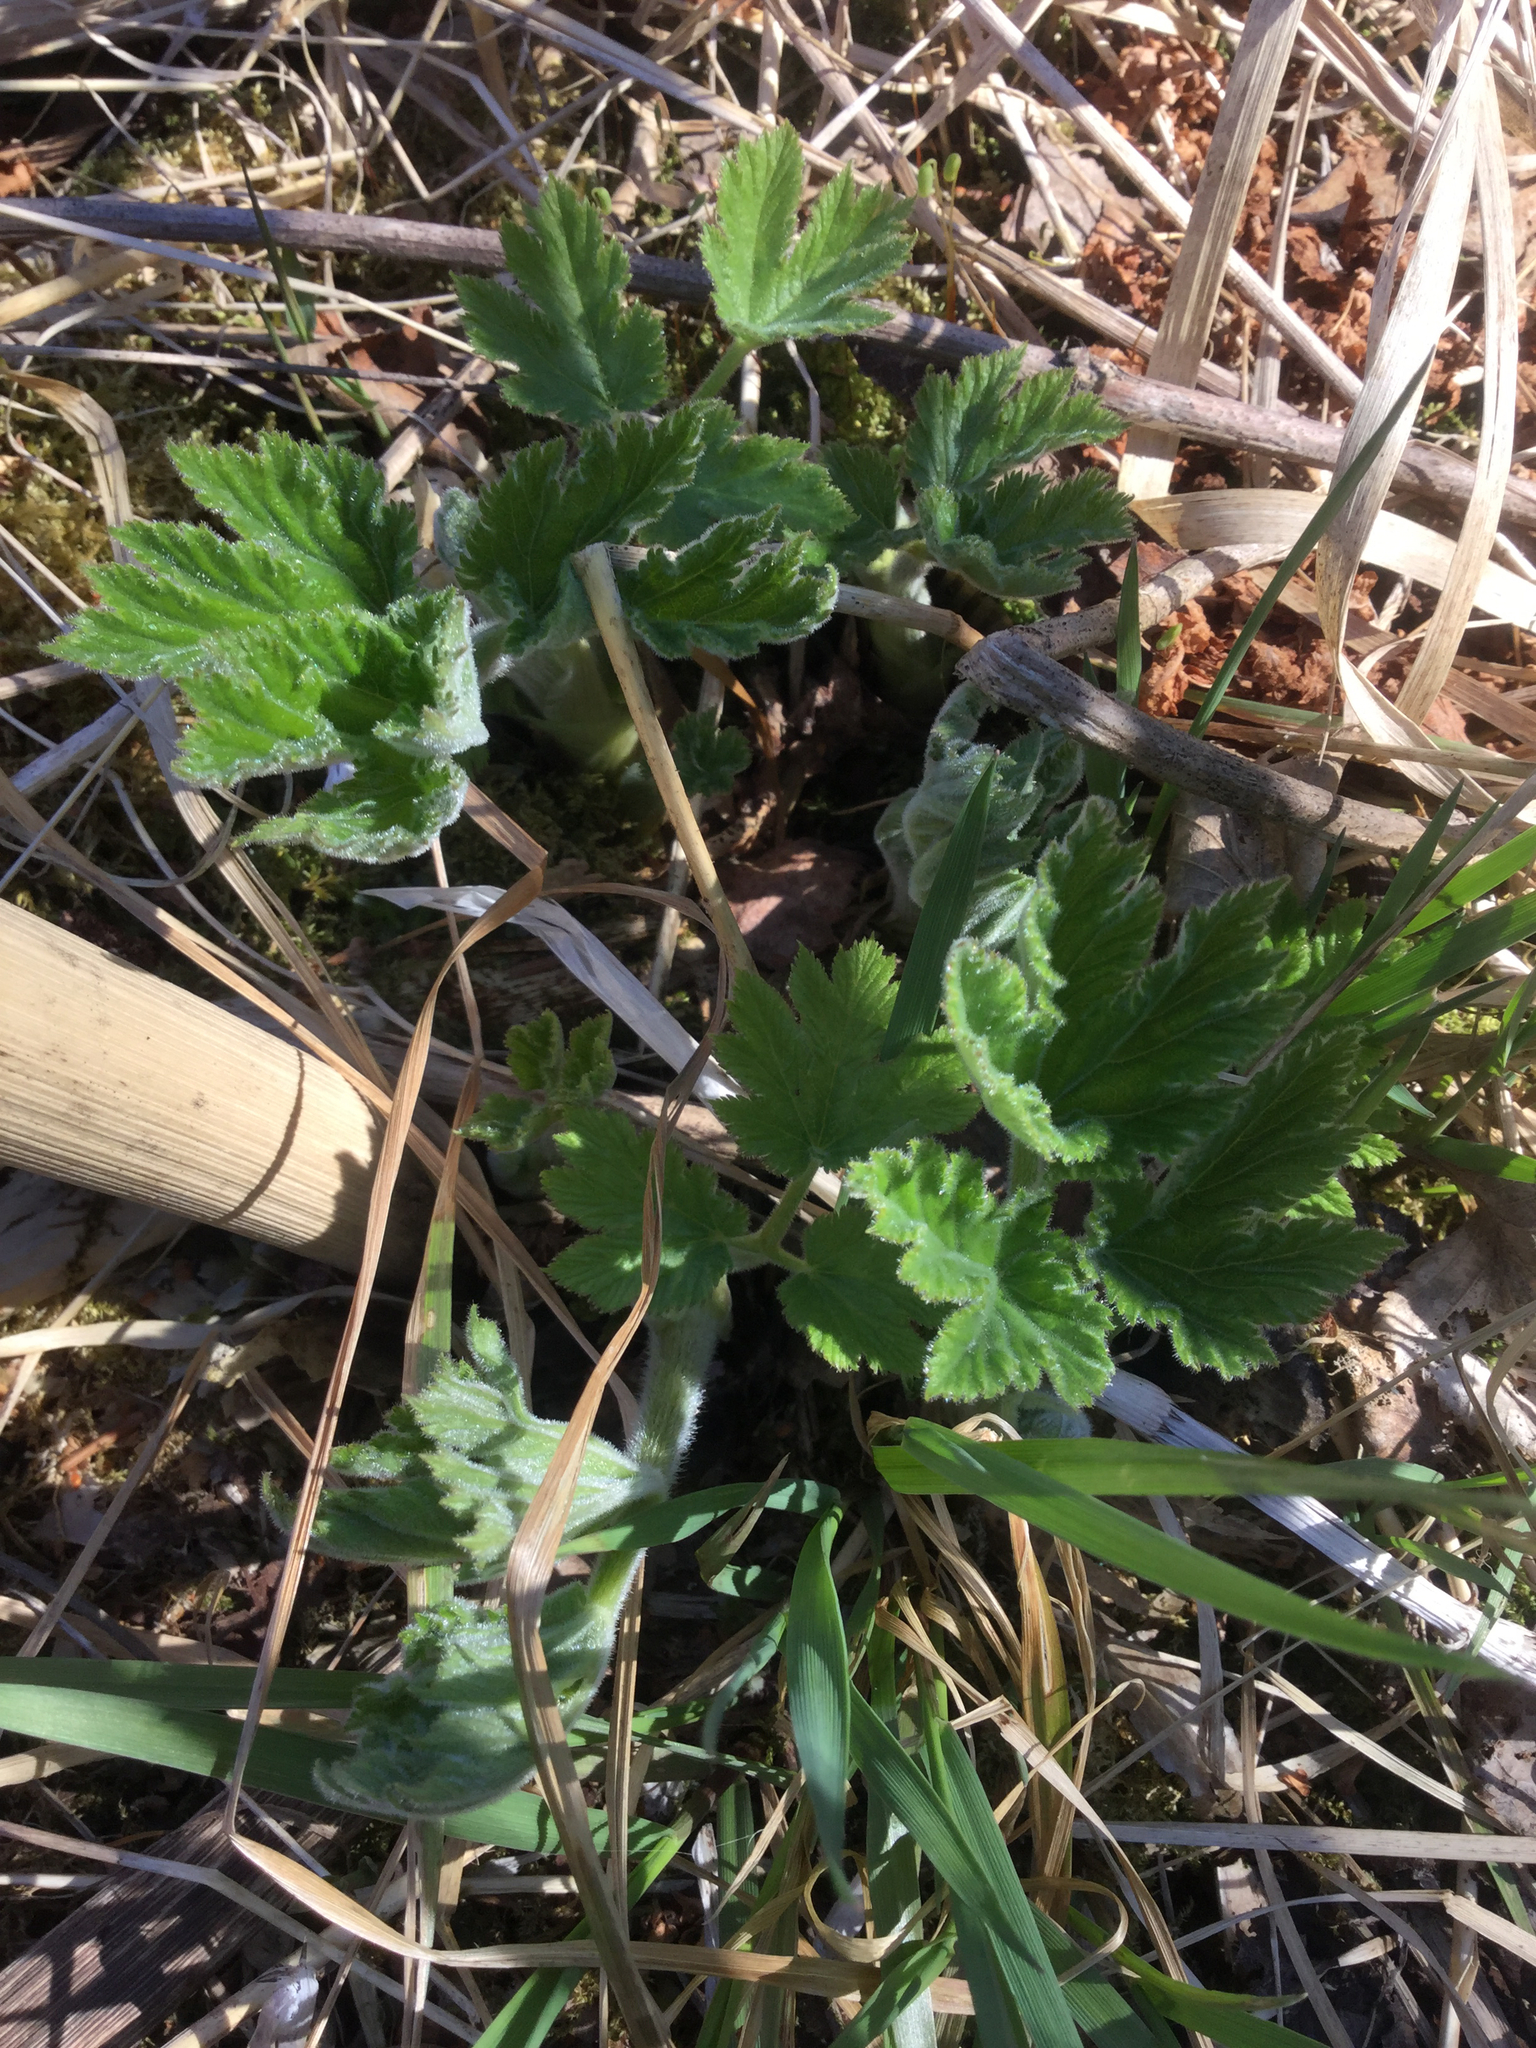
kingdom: Plantae
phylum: Tracheophyta
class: Magnoliopsida
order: Apiales
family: Apiaceae
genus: Heracleum
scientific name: Heracleum maximum
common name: American cow parsnip
